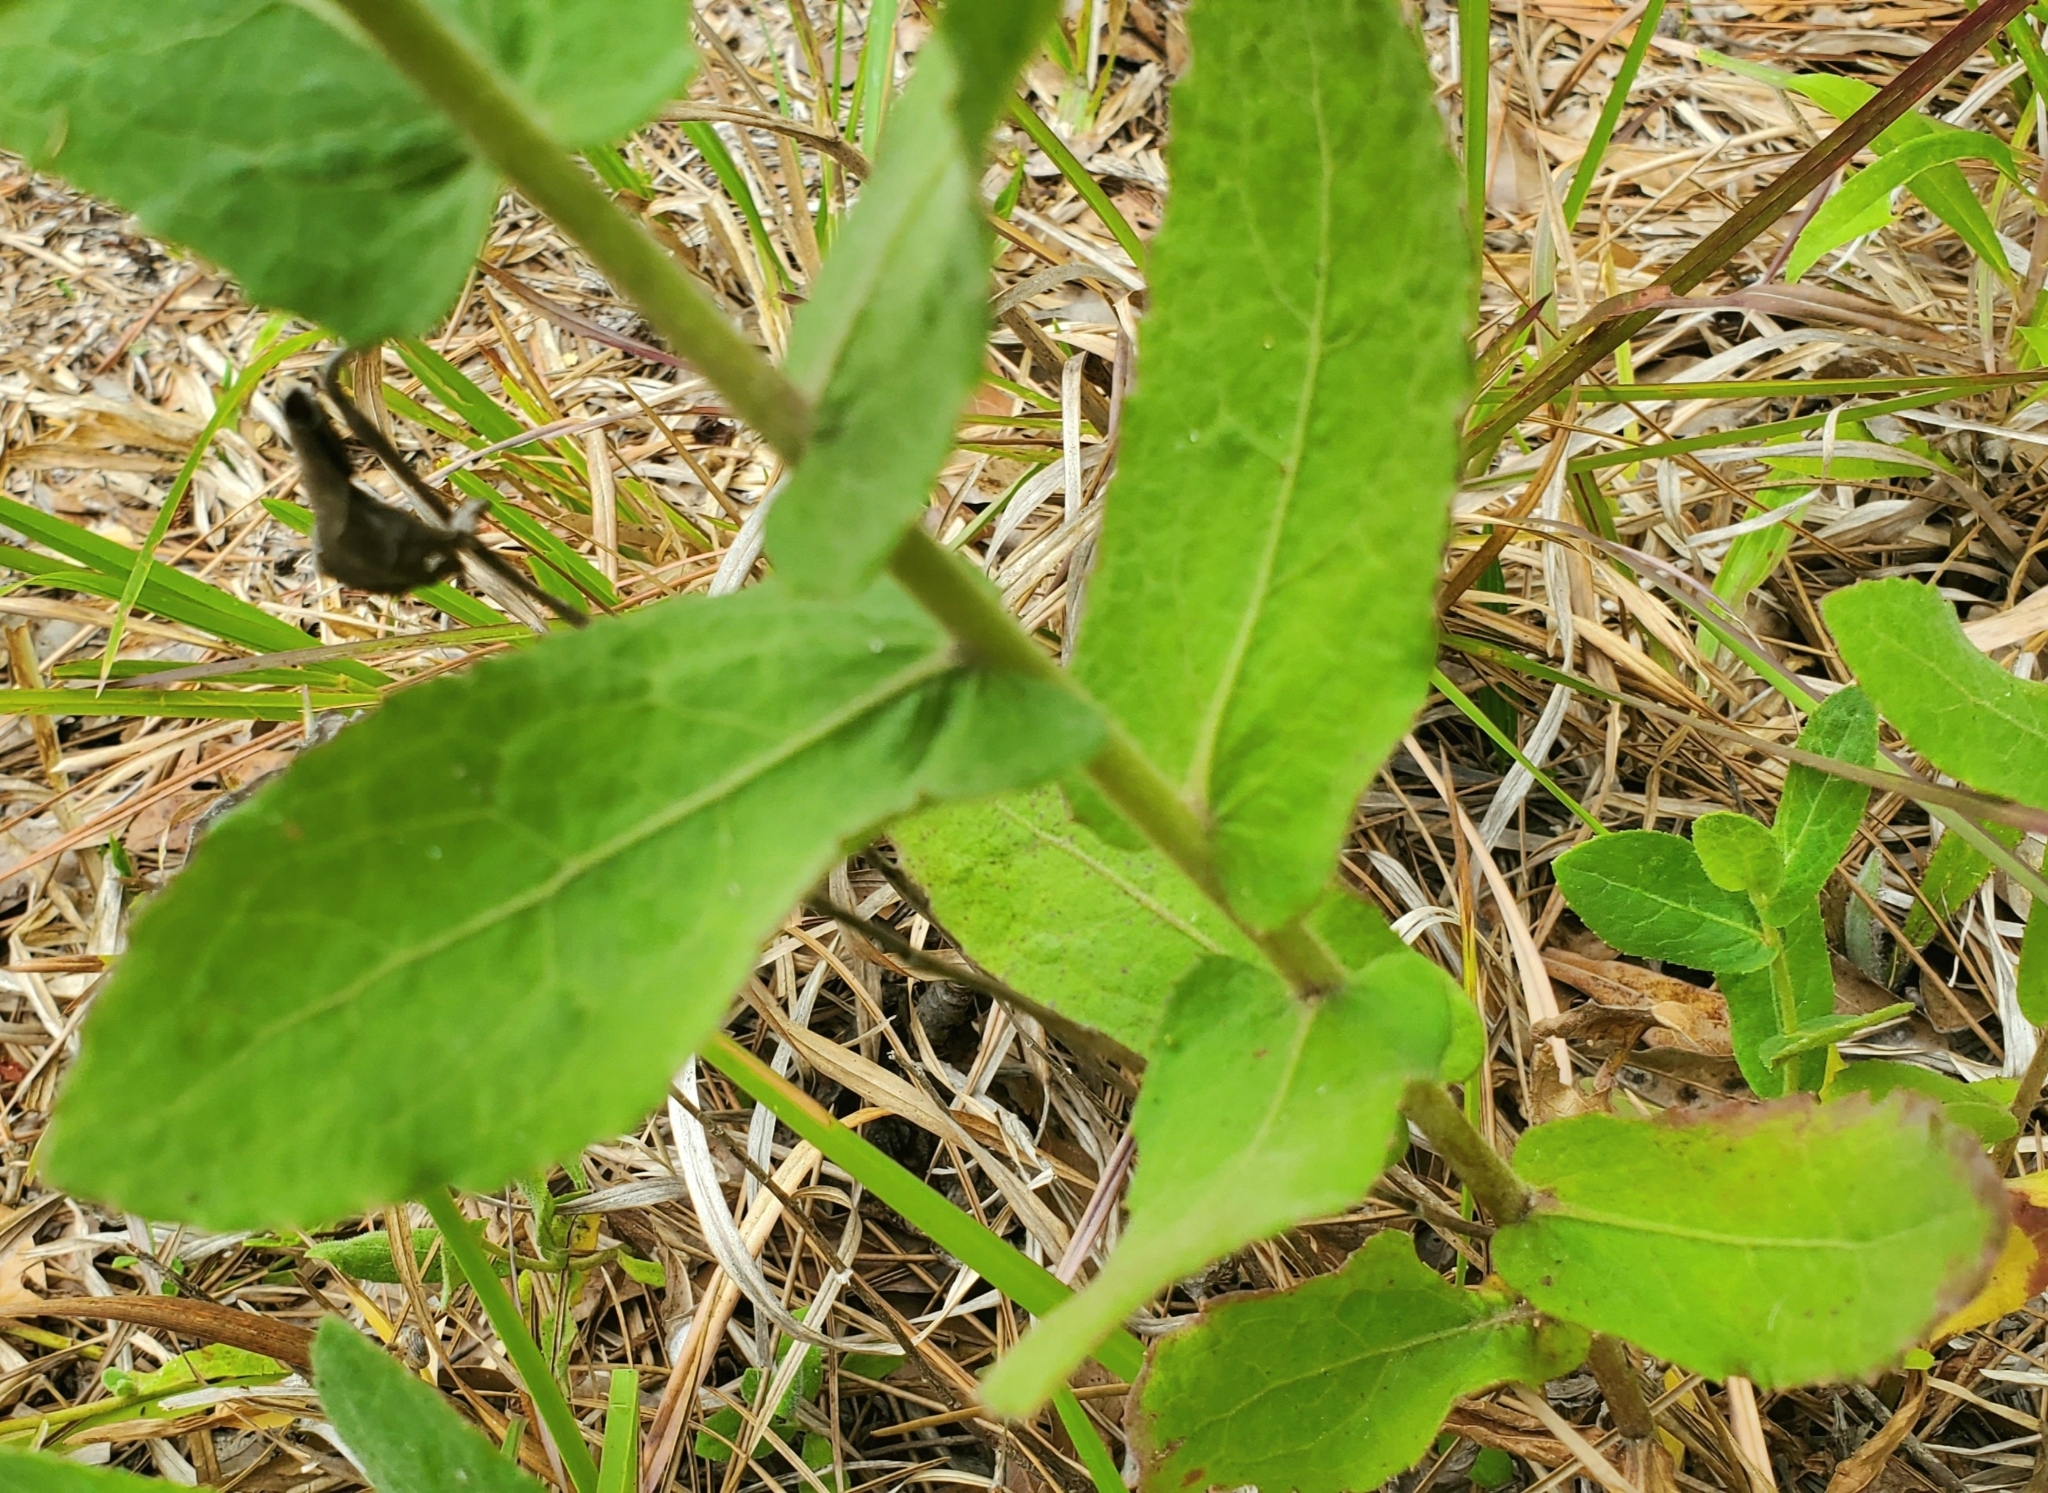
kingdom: Plantae
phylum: Tracheophyta
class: Magnoliopsida
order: Asterales
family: Asteraceae
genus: Pluchea
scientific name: Pluchea baccharis
